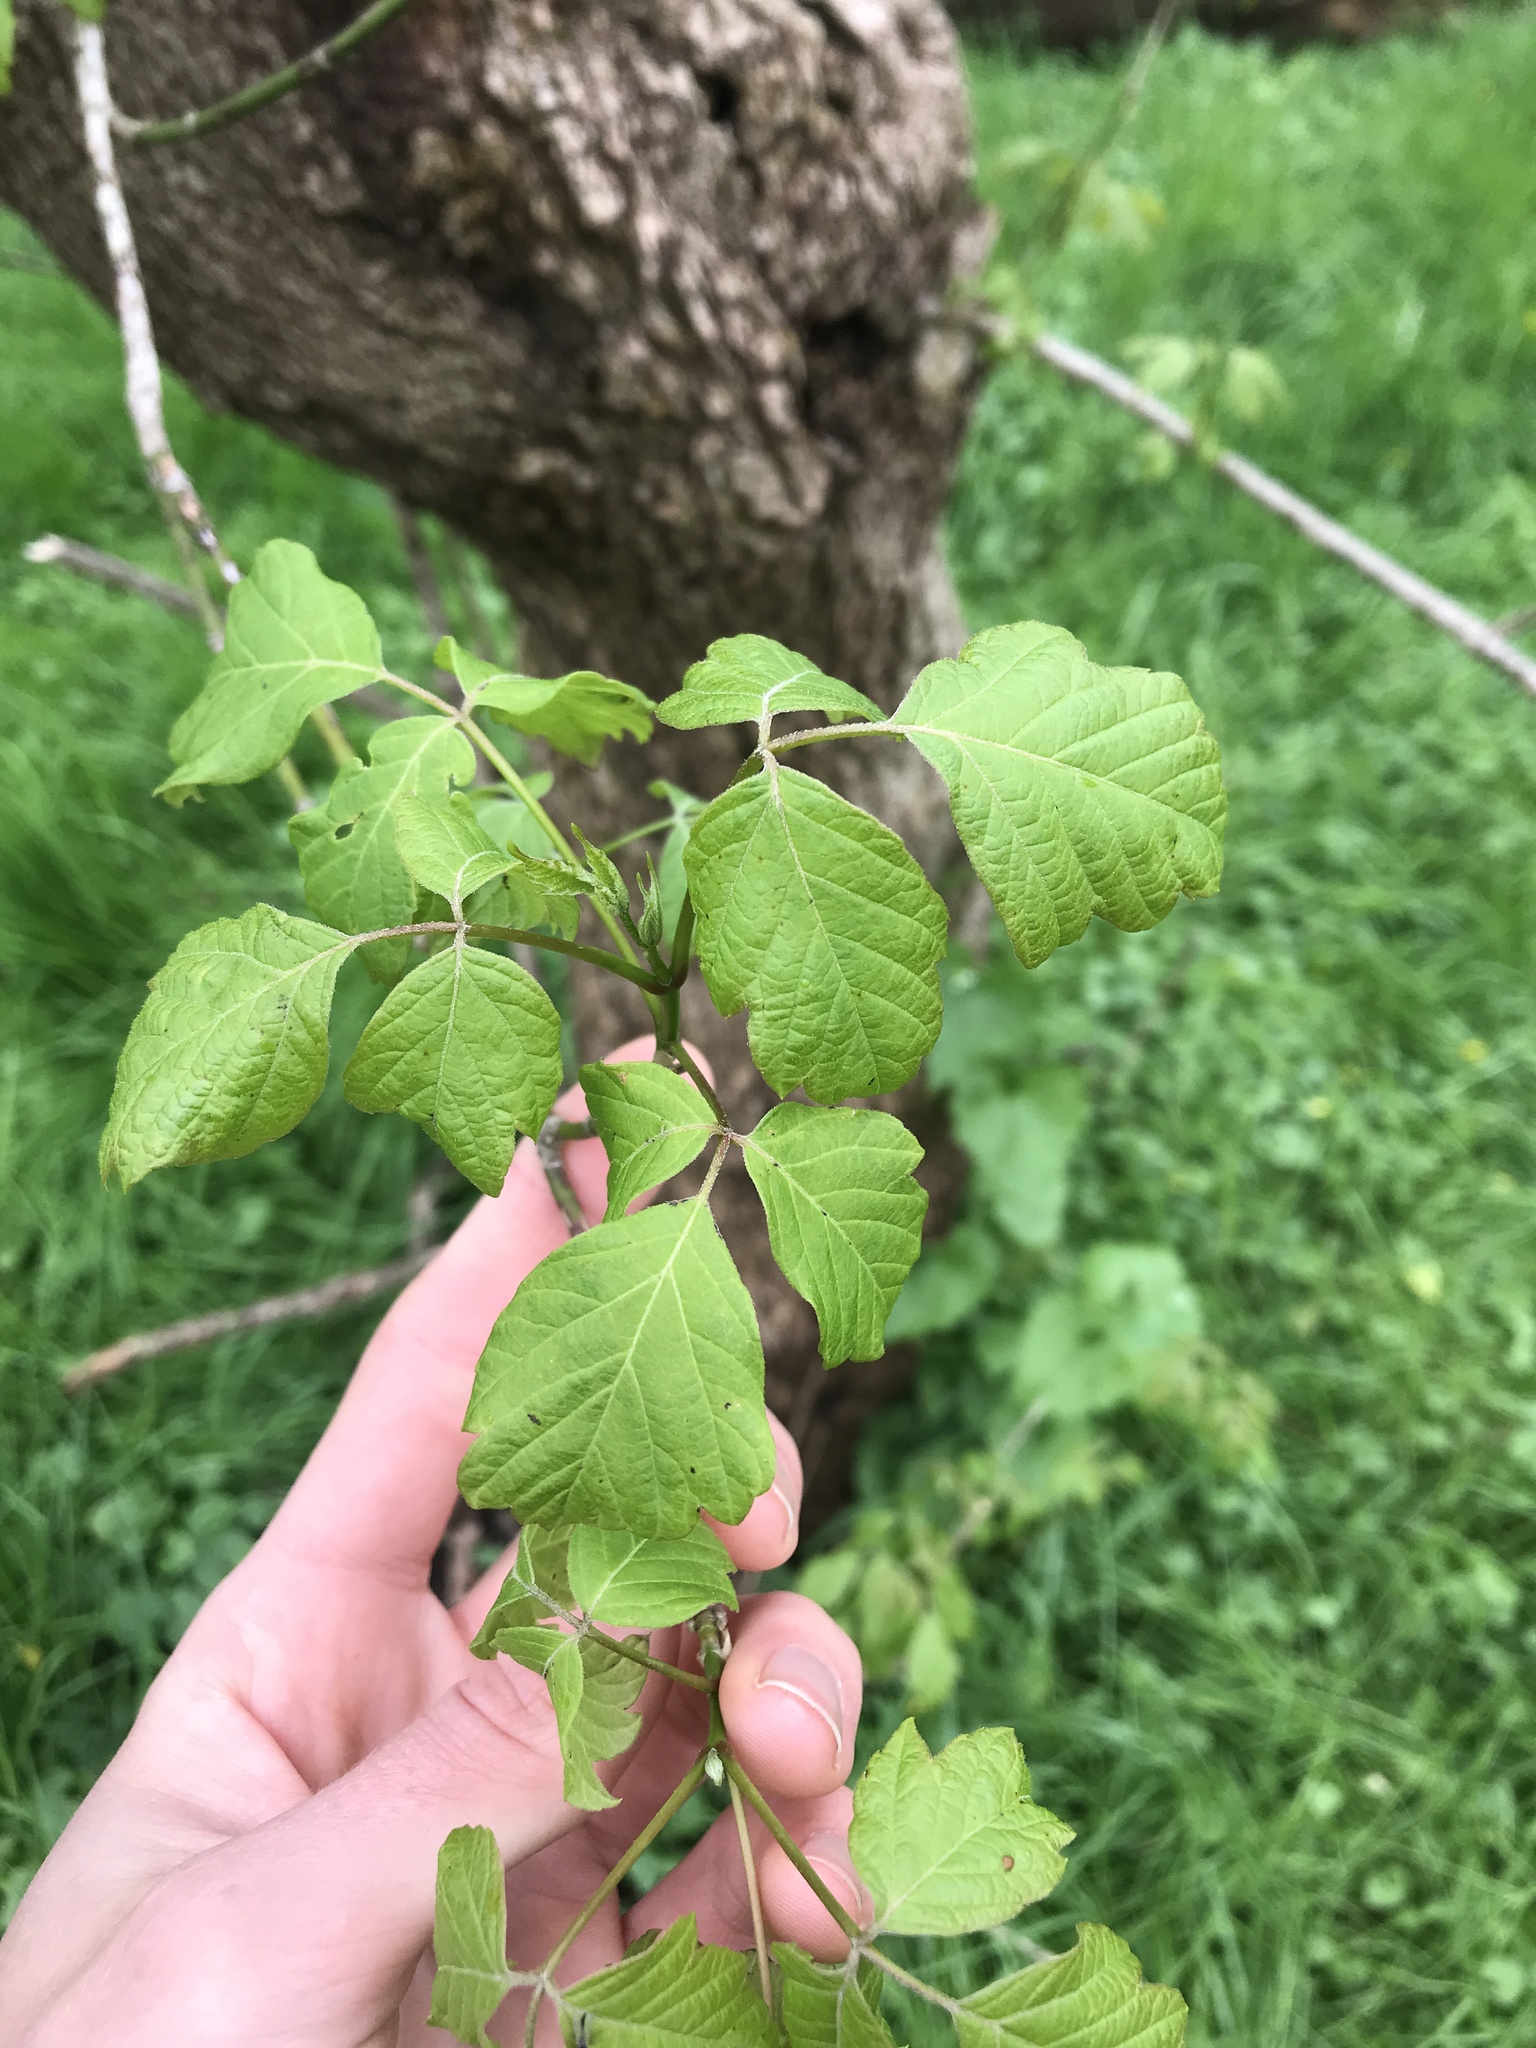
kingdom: Plantae
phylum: Tracheophyta
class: Magnoliopsida
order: Sapindales
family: Sapindaceae
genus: Acer
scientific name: Acer negundo
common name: Ashleaf maple
